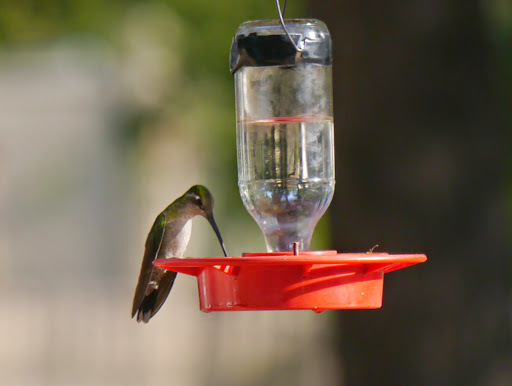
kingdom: Animalia
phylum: Chordata
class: Aves
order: Apodiformes
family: Trochilidae
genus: Eugenes
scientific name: Eugenes fulgens
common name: Magnificent hummingbird
